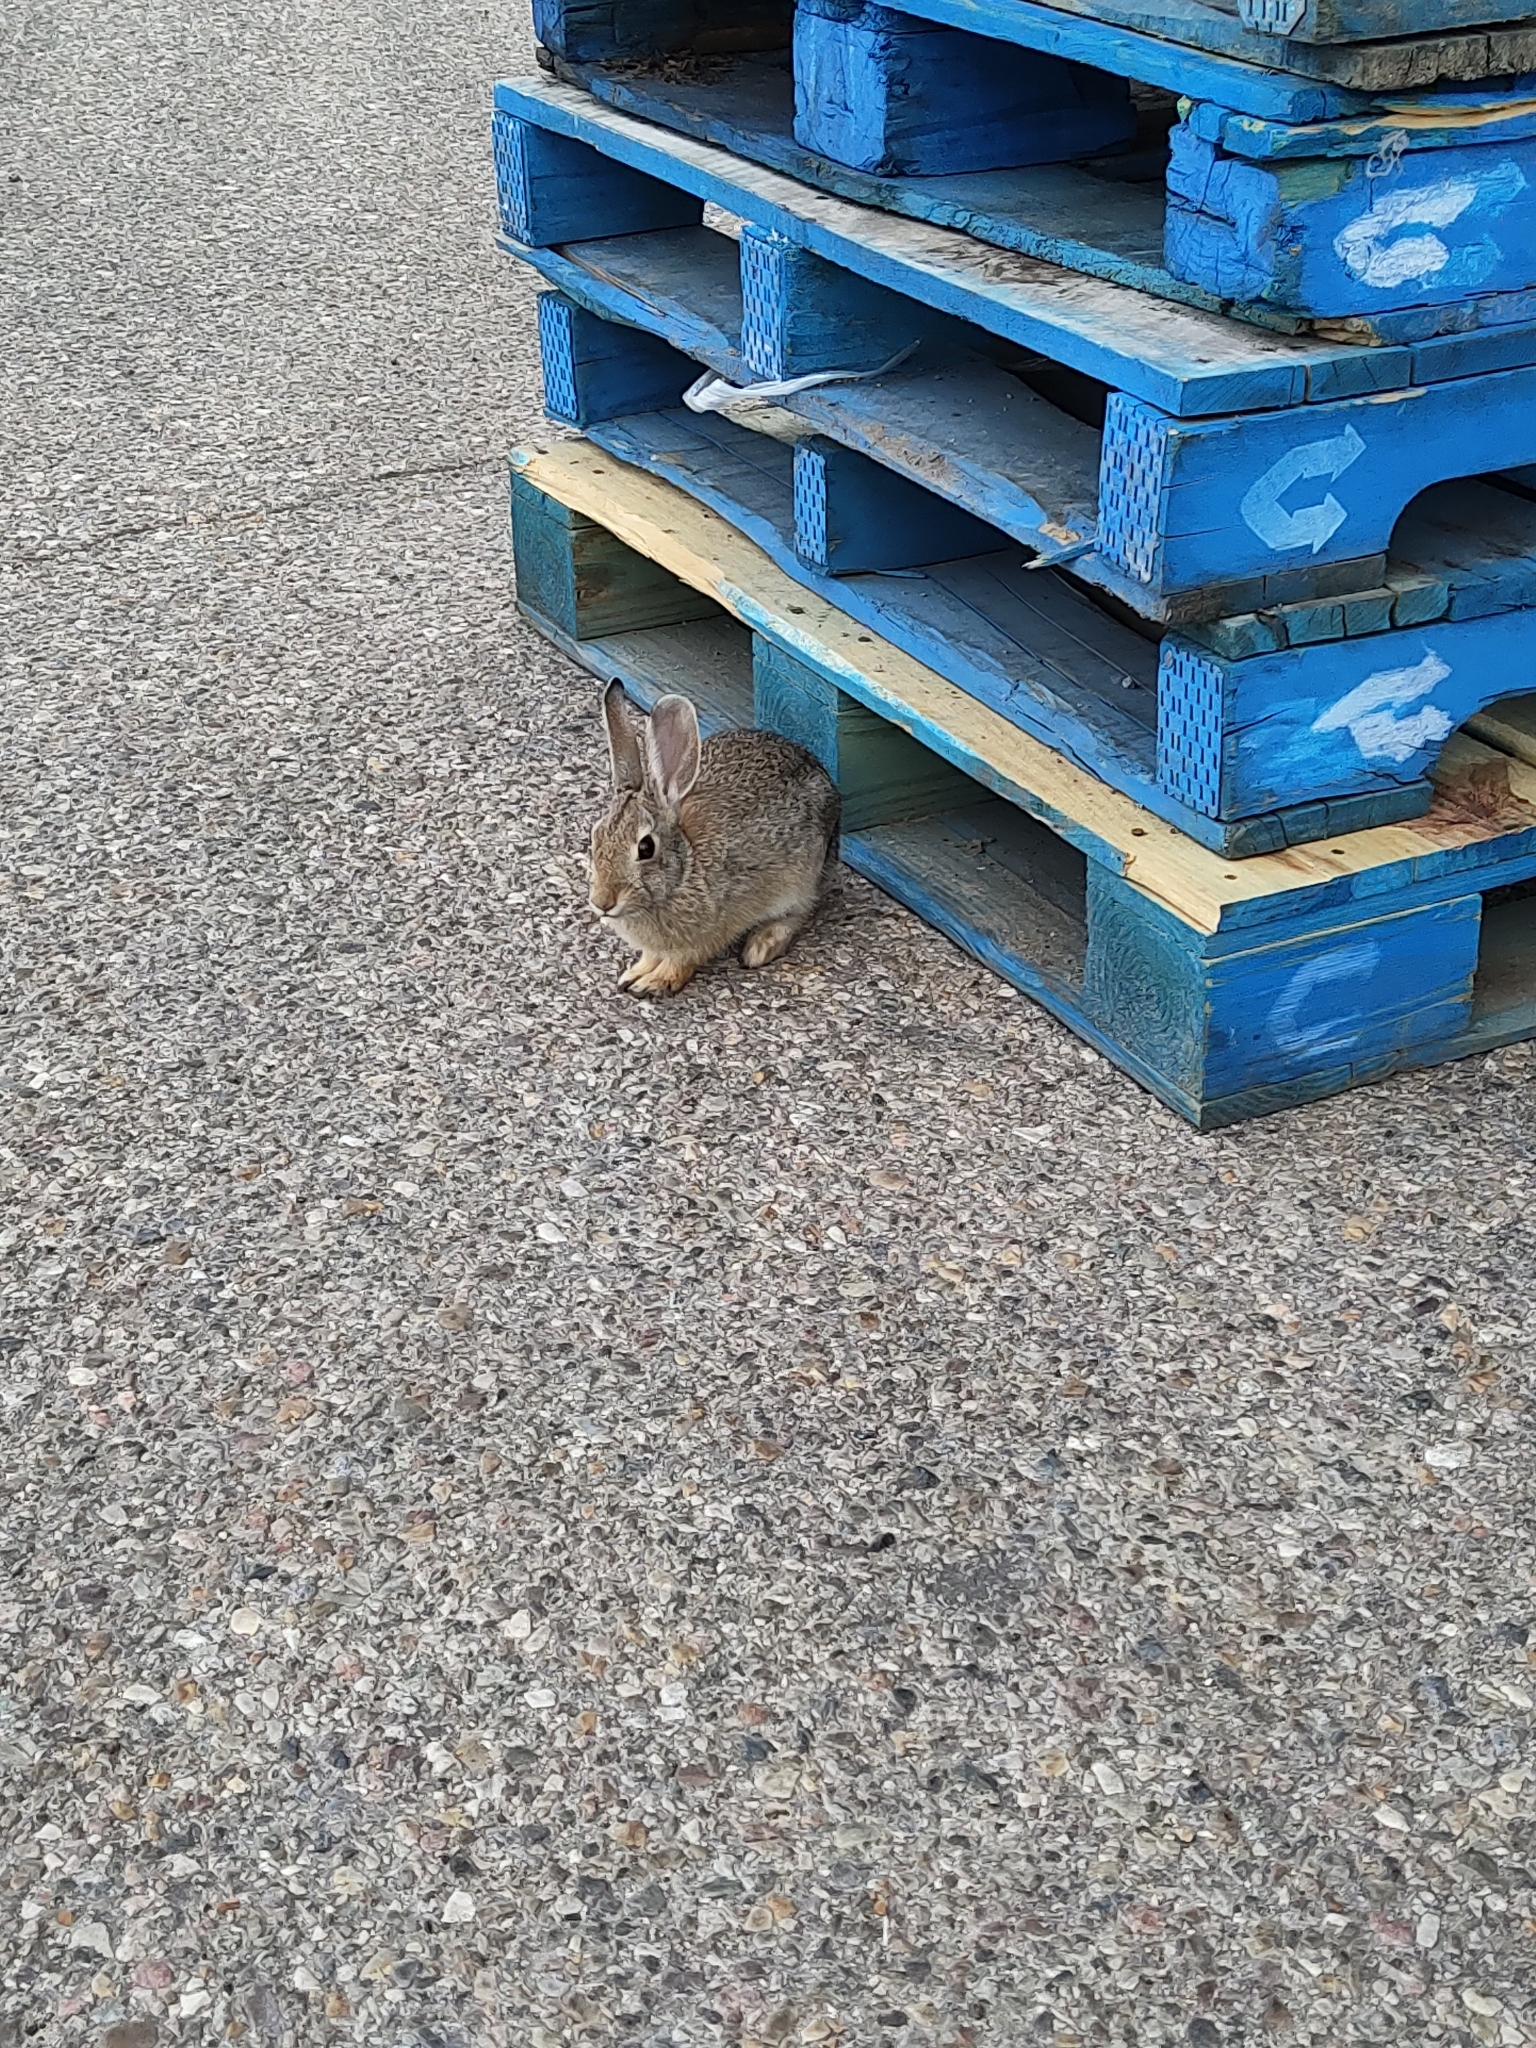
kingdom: Animalia
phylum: Chordata
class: Mammalia
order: Lagomorpha
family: Leporidae
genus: Sylvilagus
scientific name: Sylvilagus nuttallii
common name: Mountain cottontail
